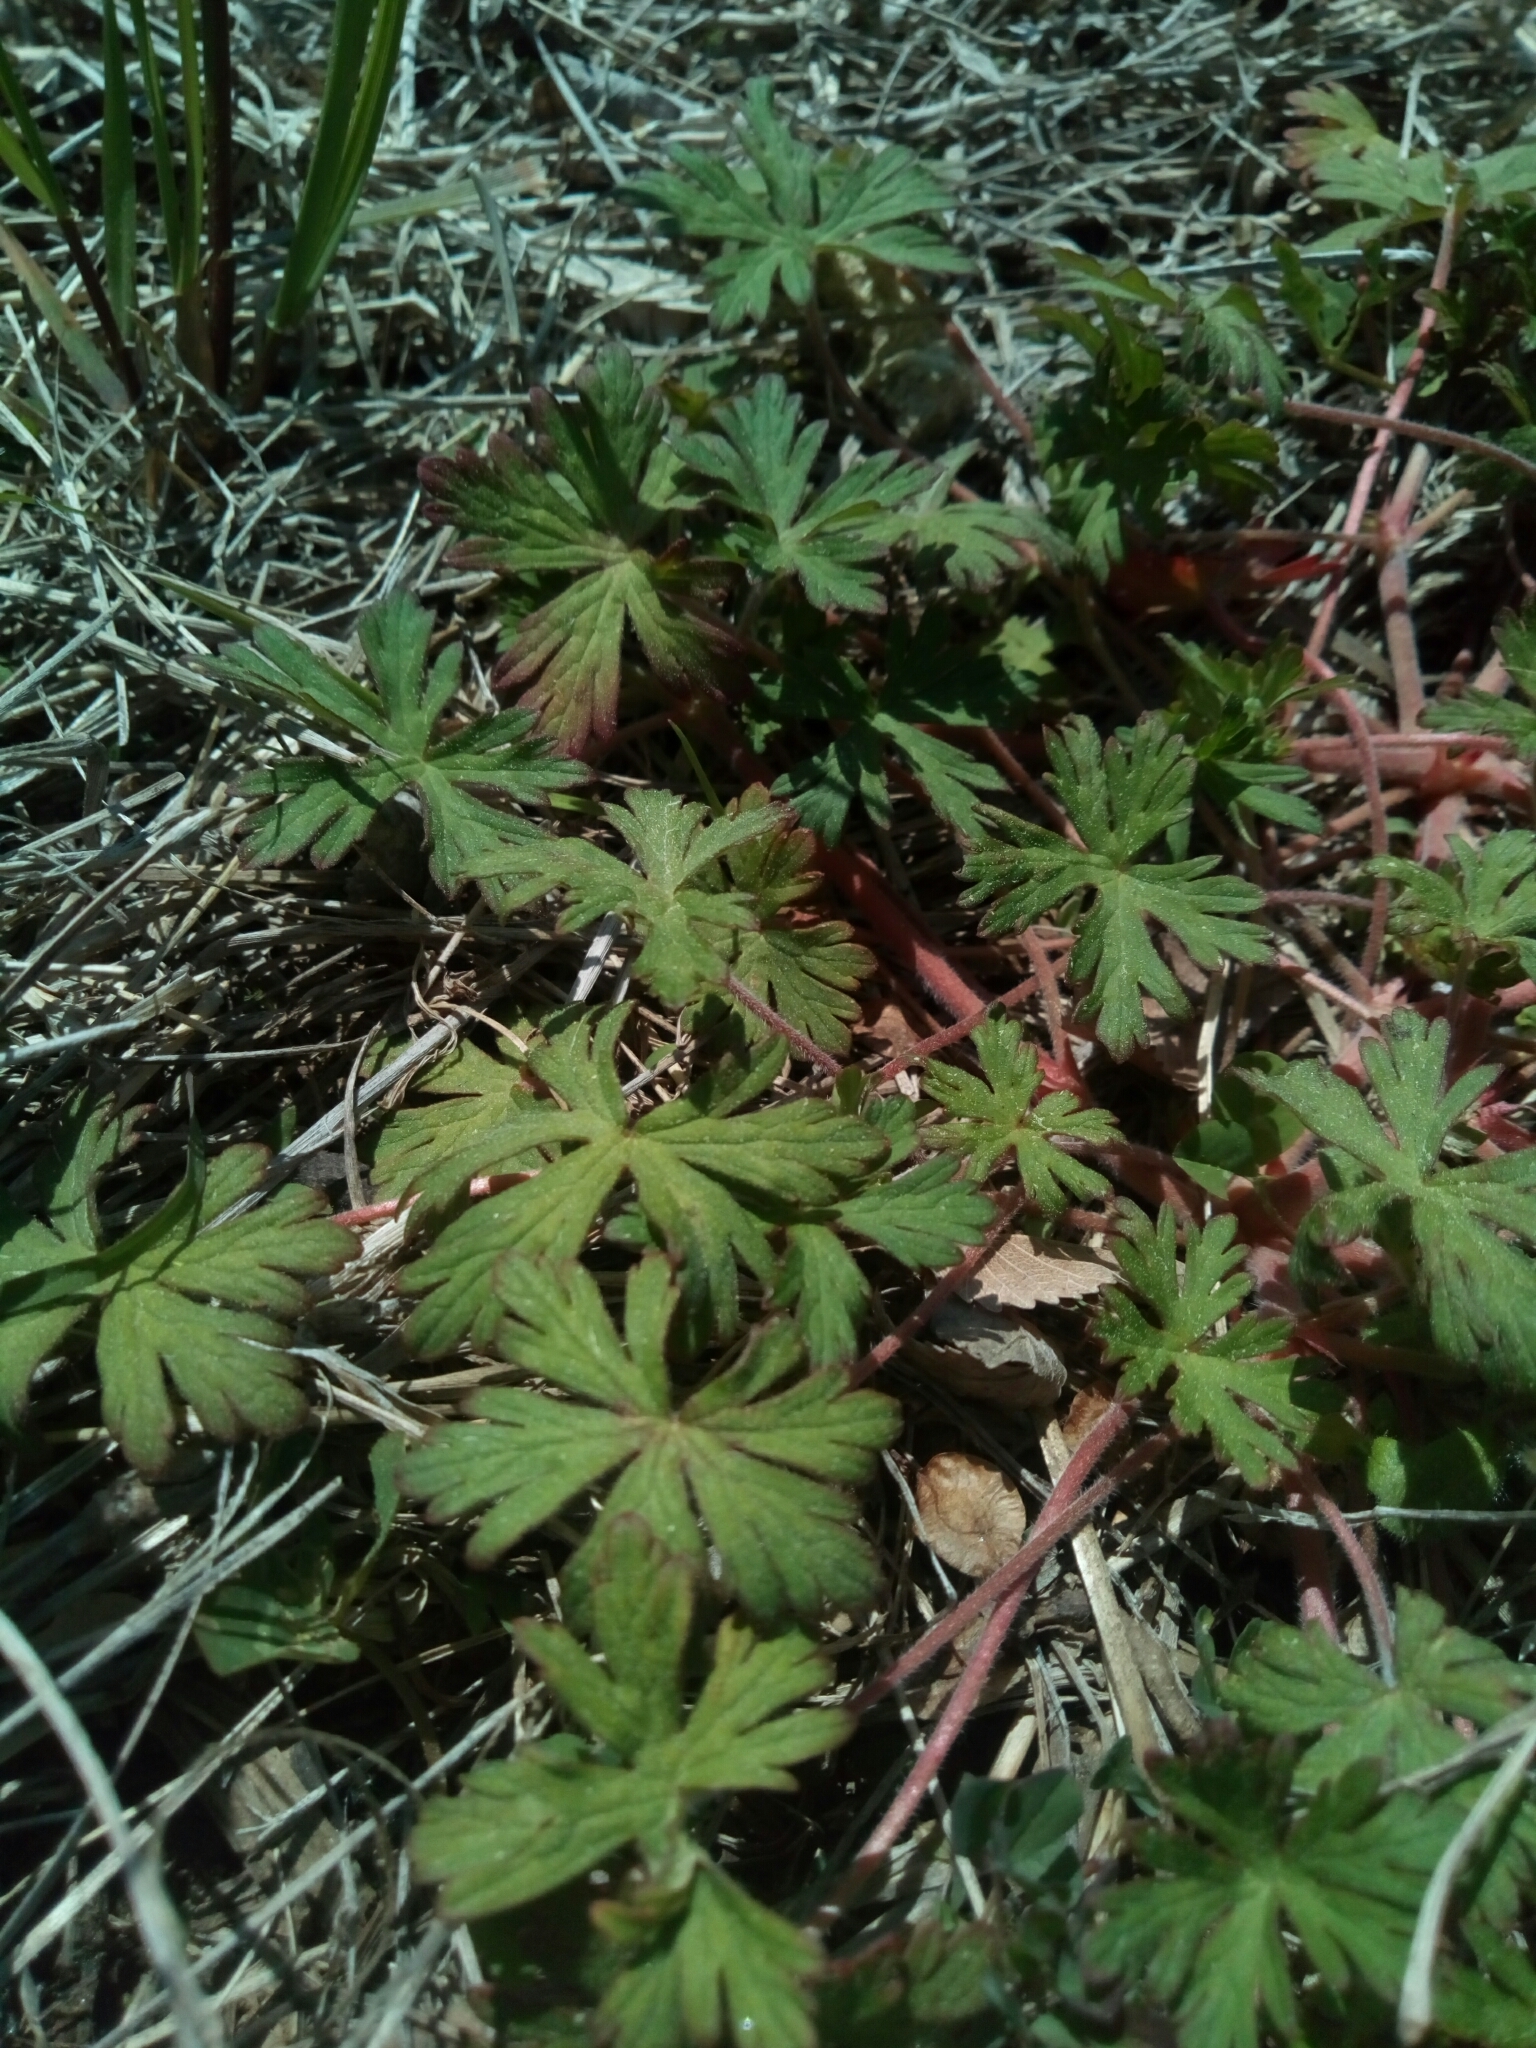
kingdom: Plantae
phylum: Tracheophyta
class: Magnoliopsida
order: Geraniales
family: Geraniaceae
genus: Geranium
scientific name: Geranium carolinianum
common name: Carolina crane's-bill
